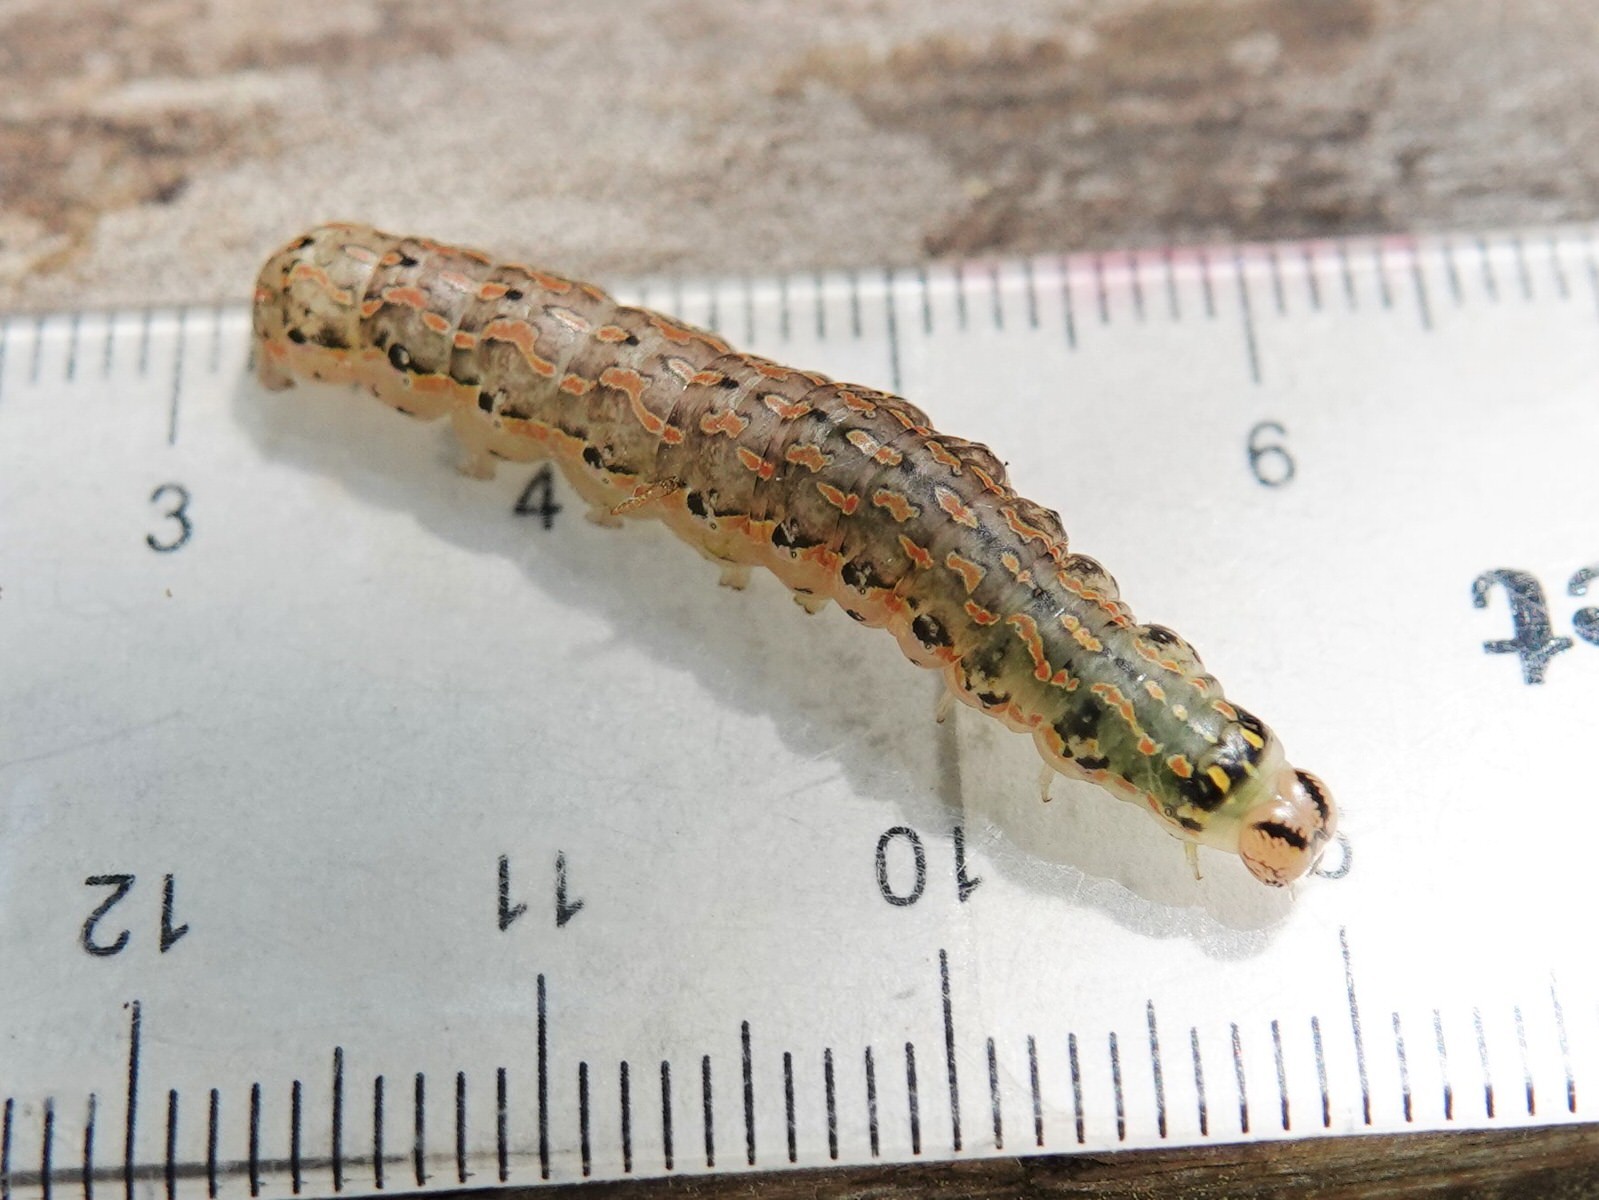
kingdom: Animalia
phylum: Arthropoda
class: Insecta
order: Lepidoptera
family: Noctuidae
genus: Austramathes
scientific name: Austramathes purpurea
